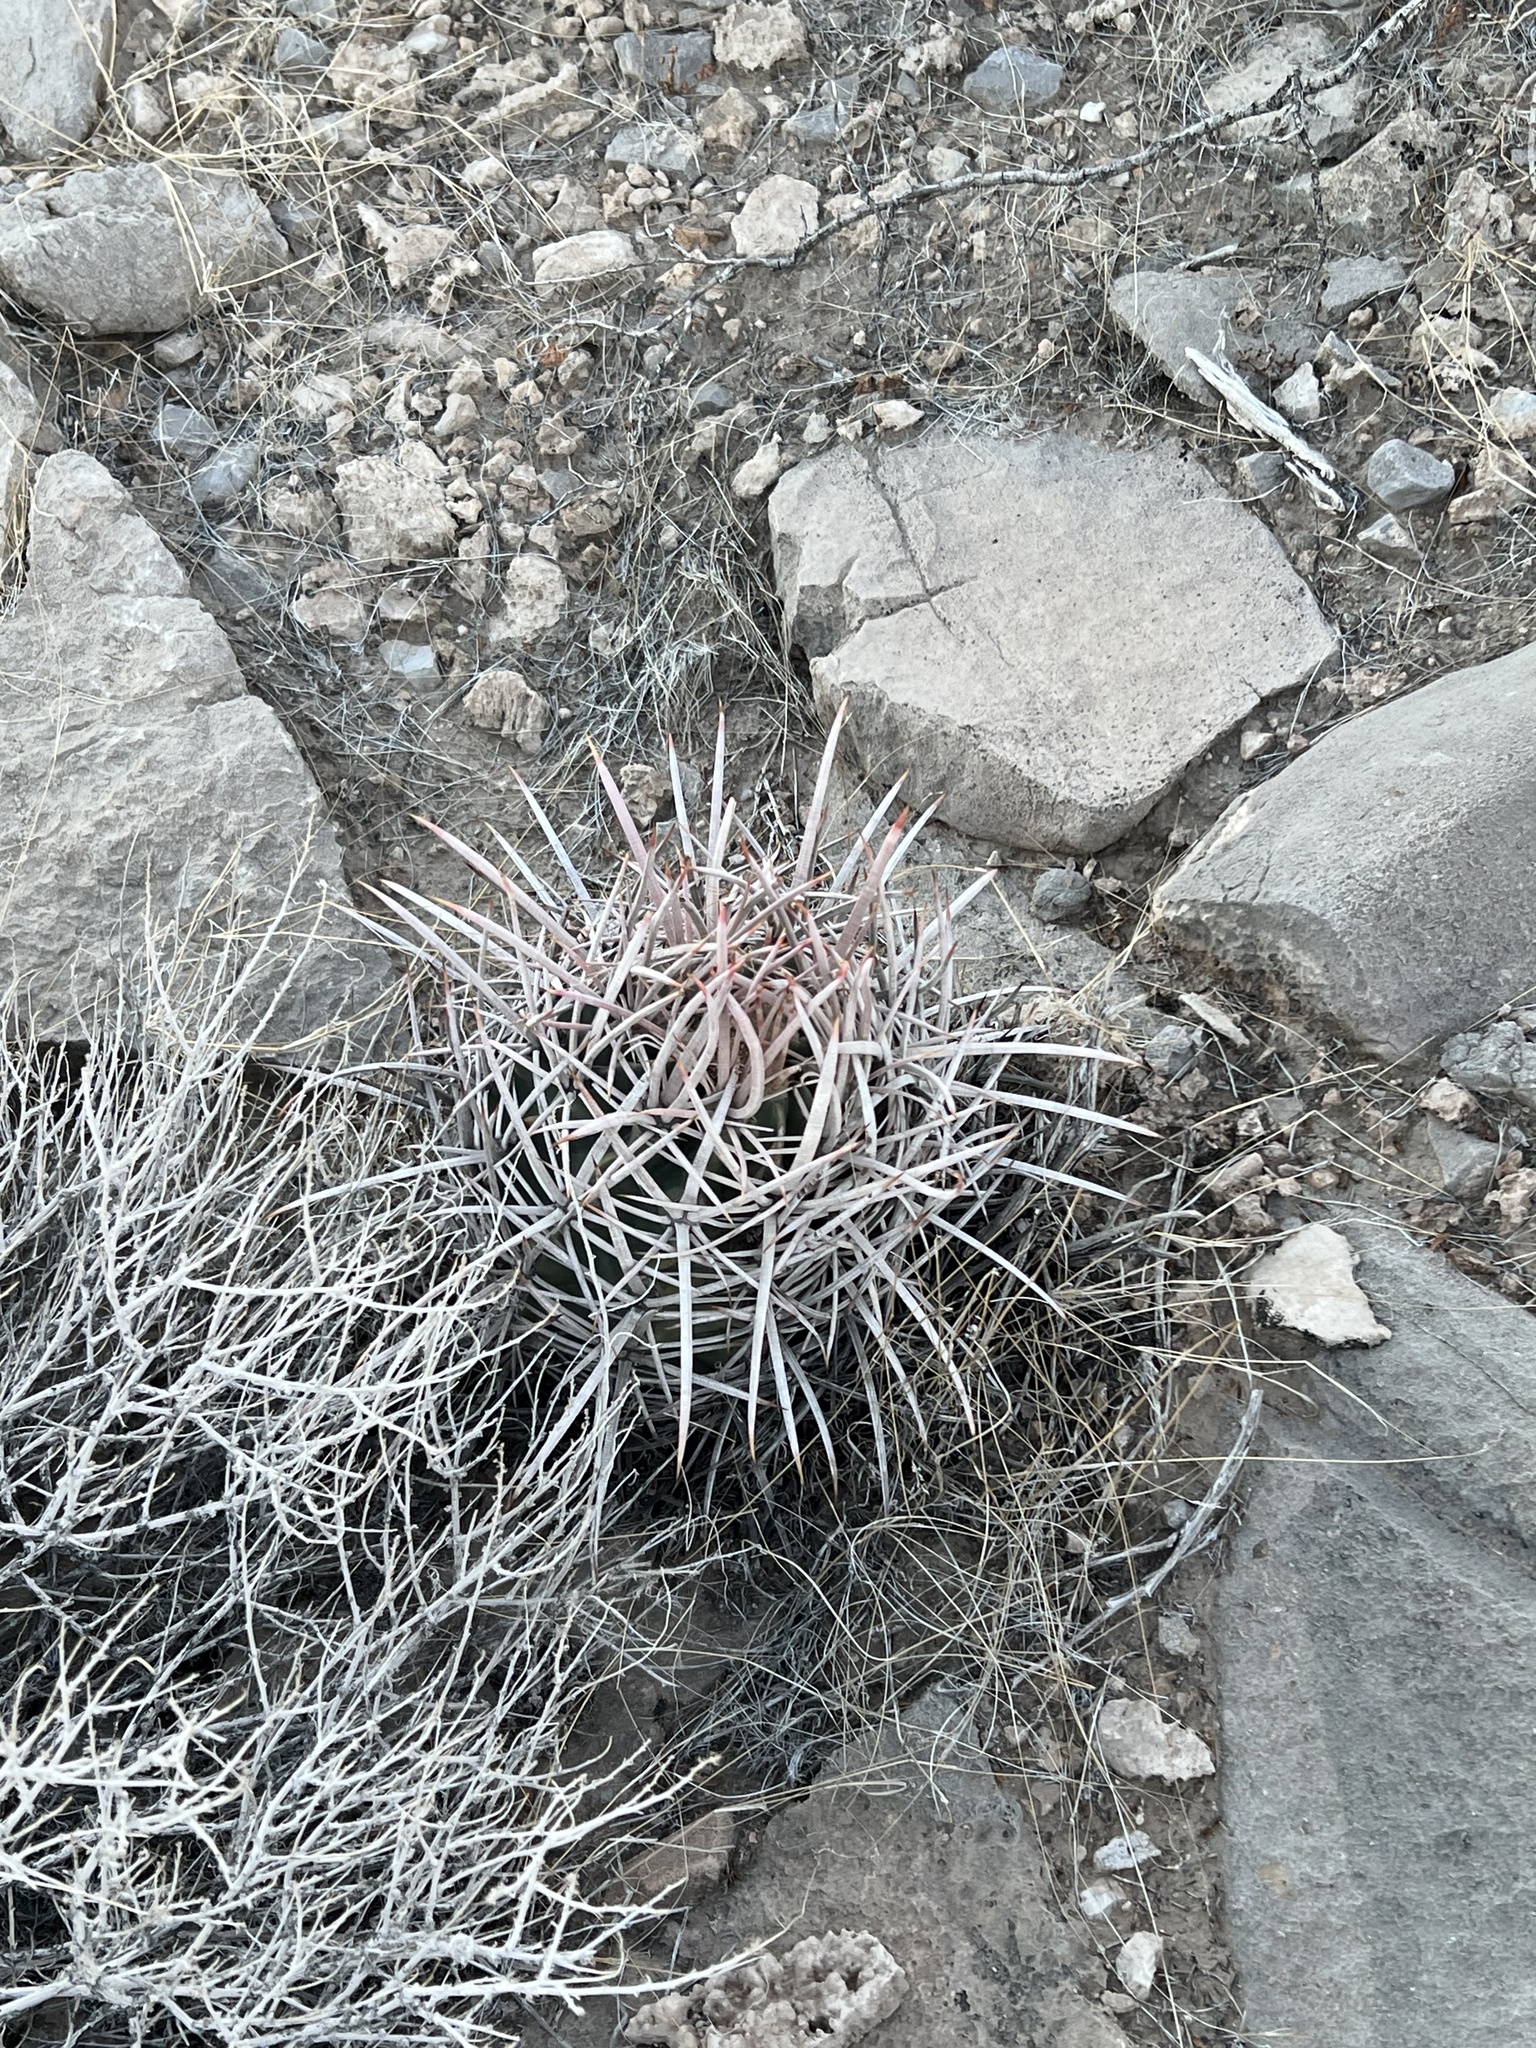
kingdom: Plantae
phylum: Tracheophyta
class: Magnoliopsida
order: Caryophyllales
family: Cactaceae
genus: Echinocactus
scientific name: Echinocactus polycephalus
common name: Cottontop cactus
